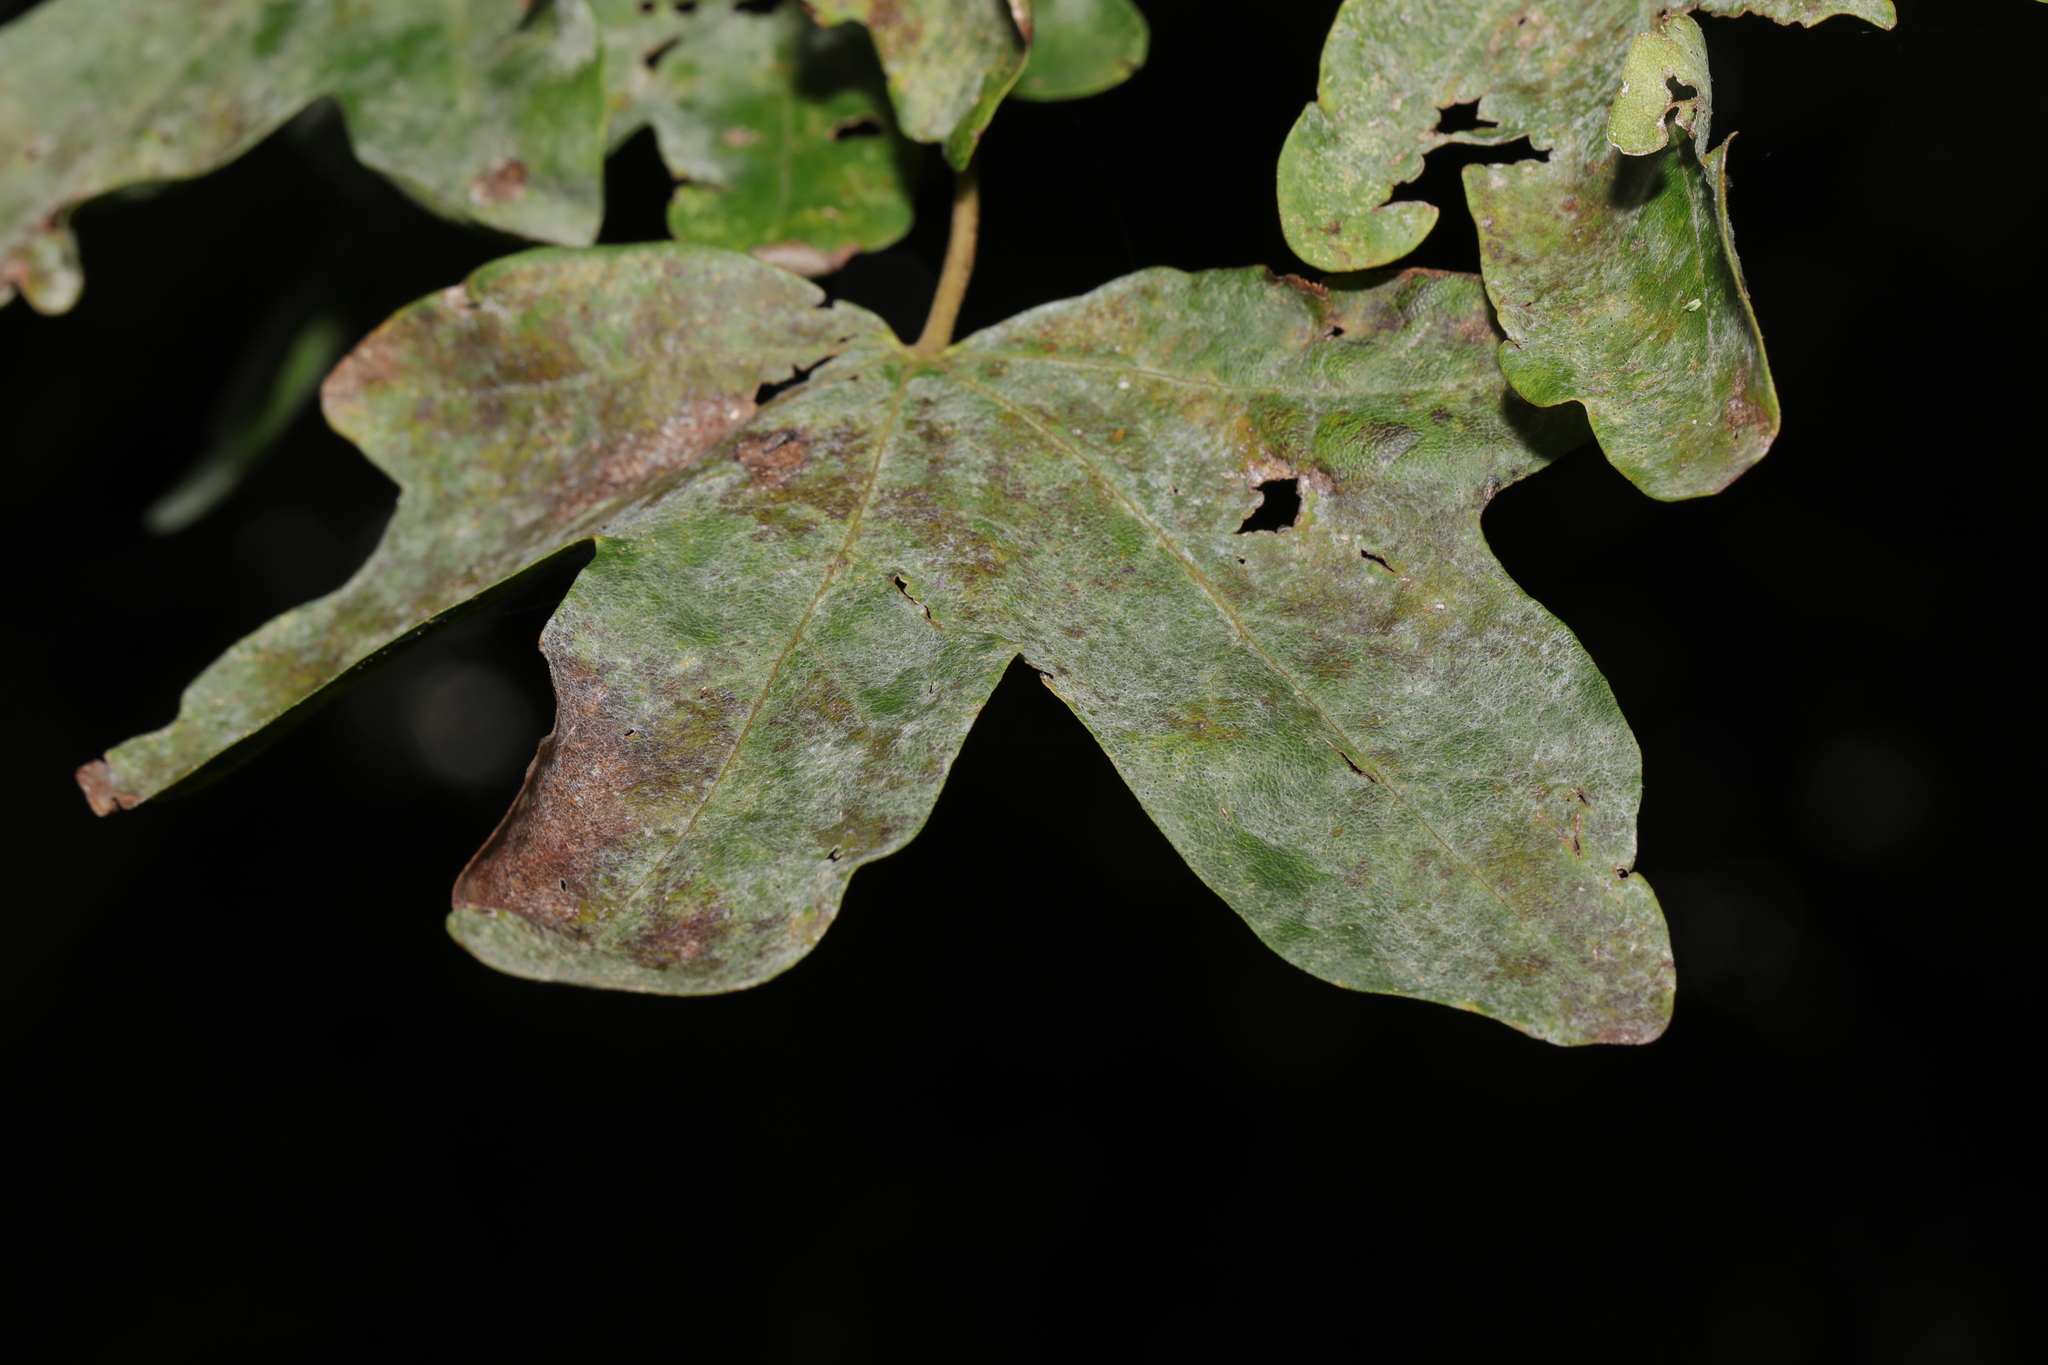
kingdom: Fungi
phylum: Ascomycota
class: Leotiomycetes
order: Helotiales
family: Erysiphaceae
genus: Sawadaea
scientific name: Sawadaea bicornis
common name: Maple mildew
